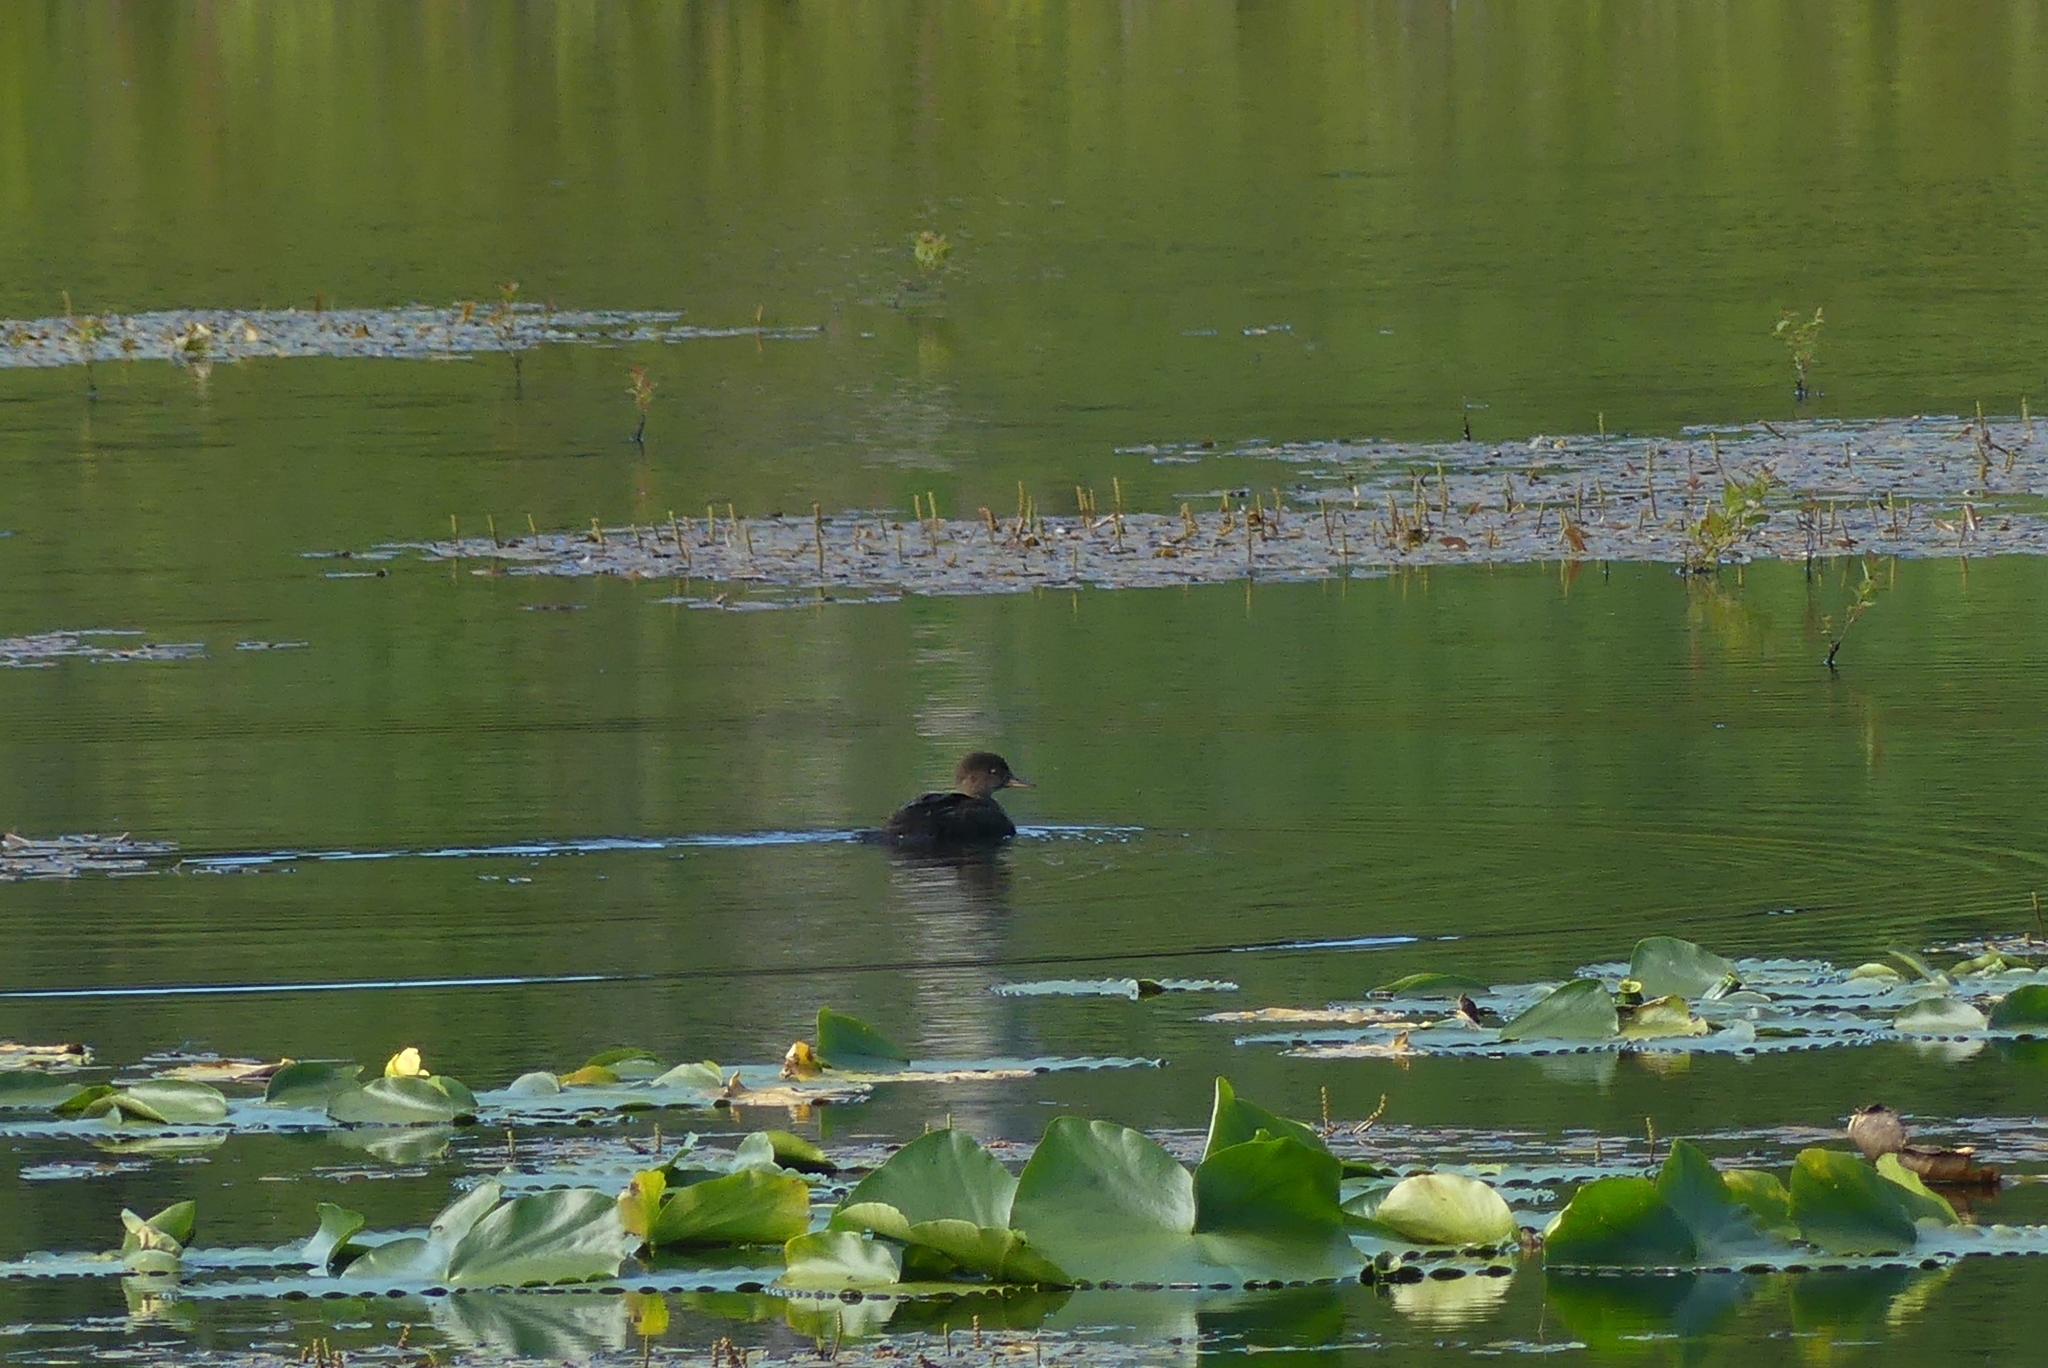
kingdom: Animalia
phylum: Chordata
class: Aves
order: Anseriformes
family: Anatidae
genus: Lophodytes
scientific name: Lophodytes cucullatus
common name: Hooded merganser
